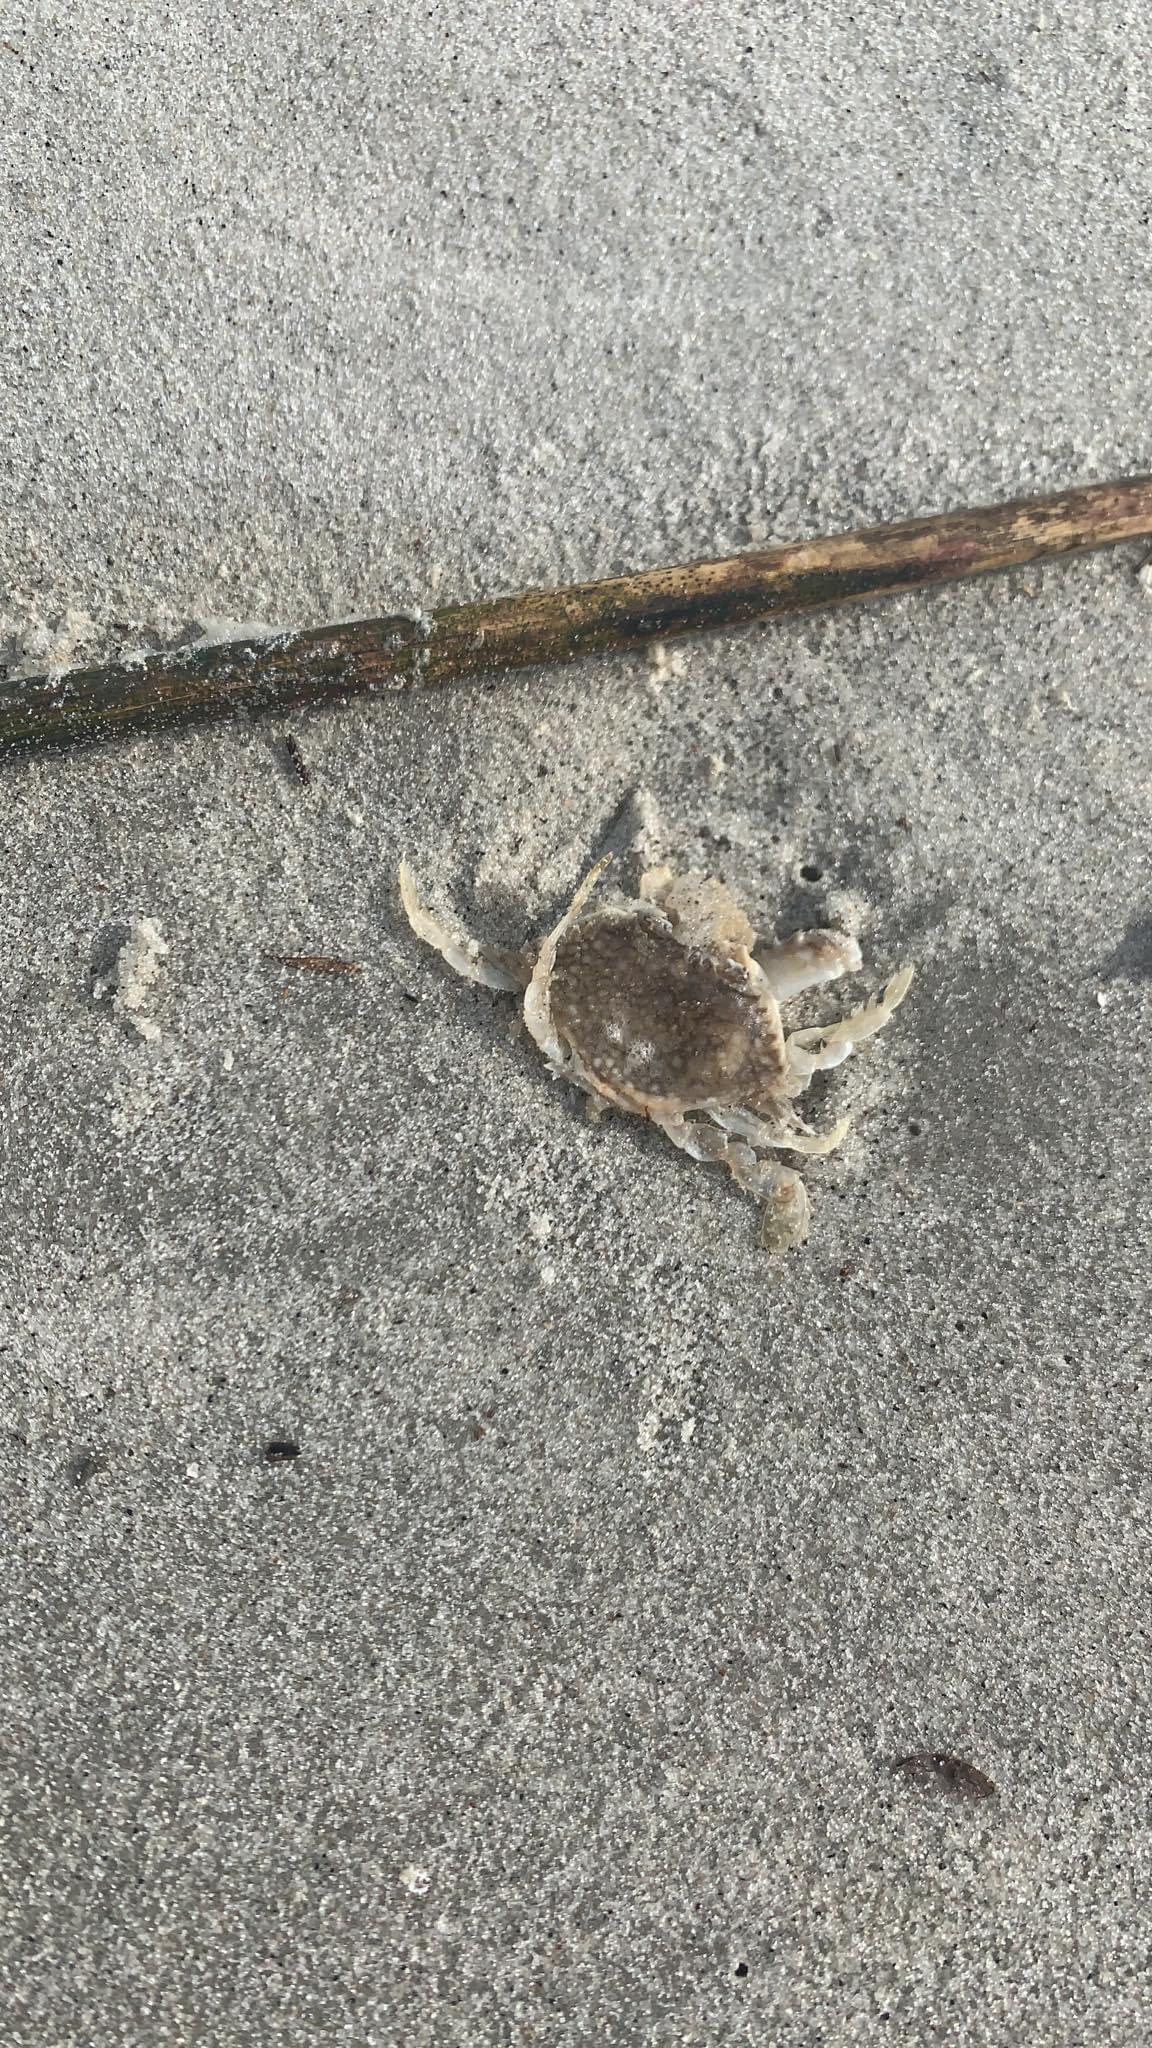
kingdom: Animalia
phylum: Arthropoda
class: Malacostraca
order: Decapoda
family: Portunidae
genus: Arenaeus
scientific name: Arenaeus cribrarius
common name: Speckled crab
